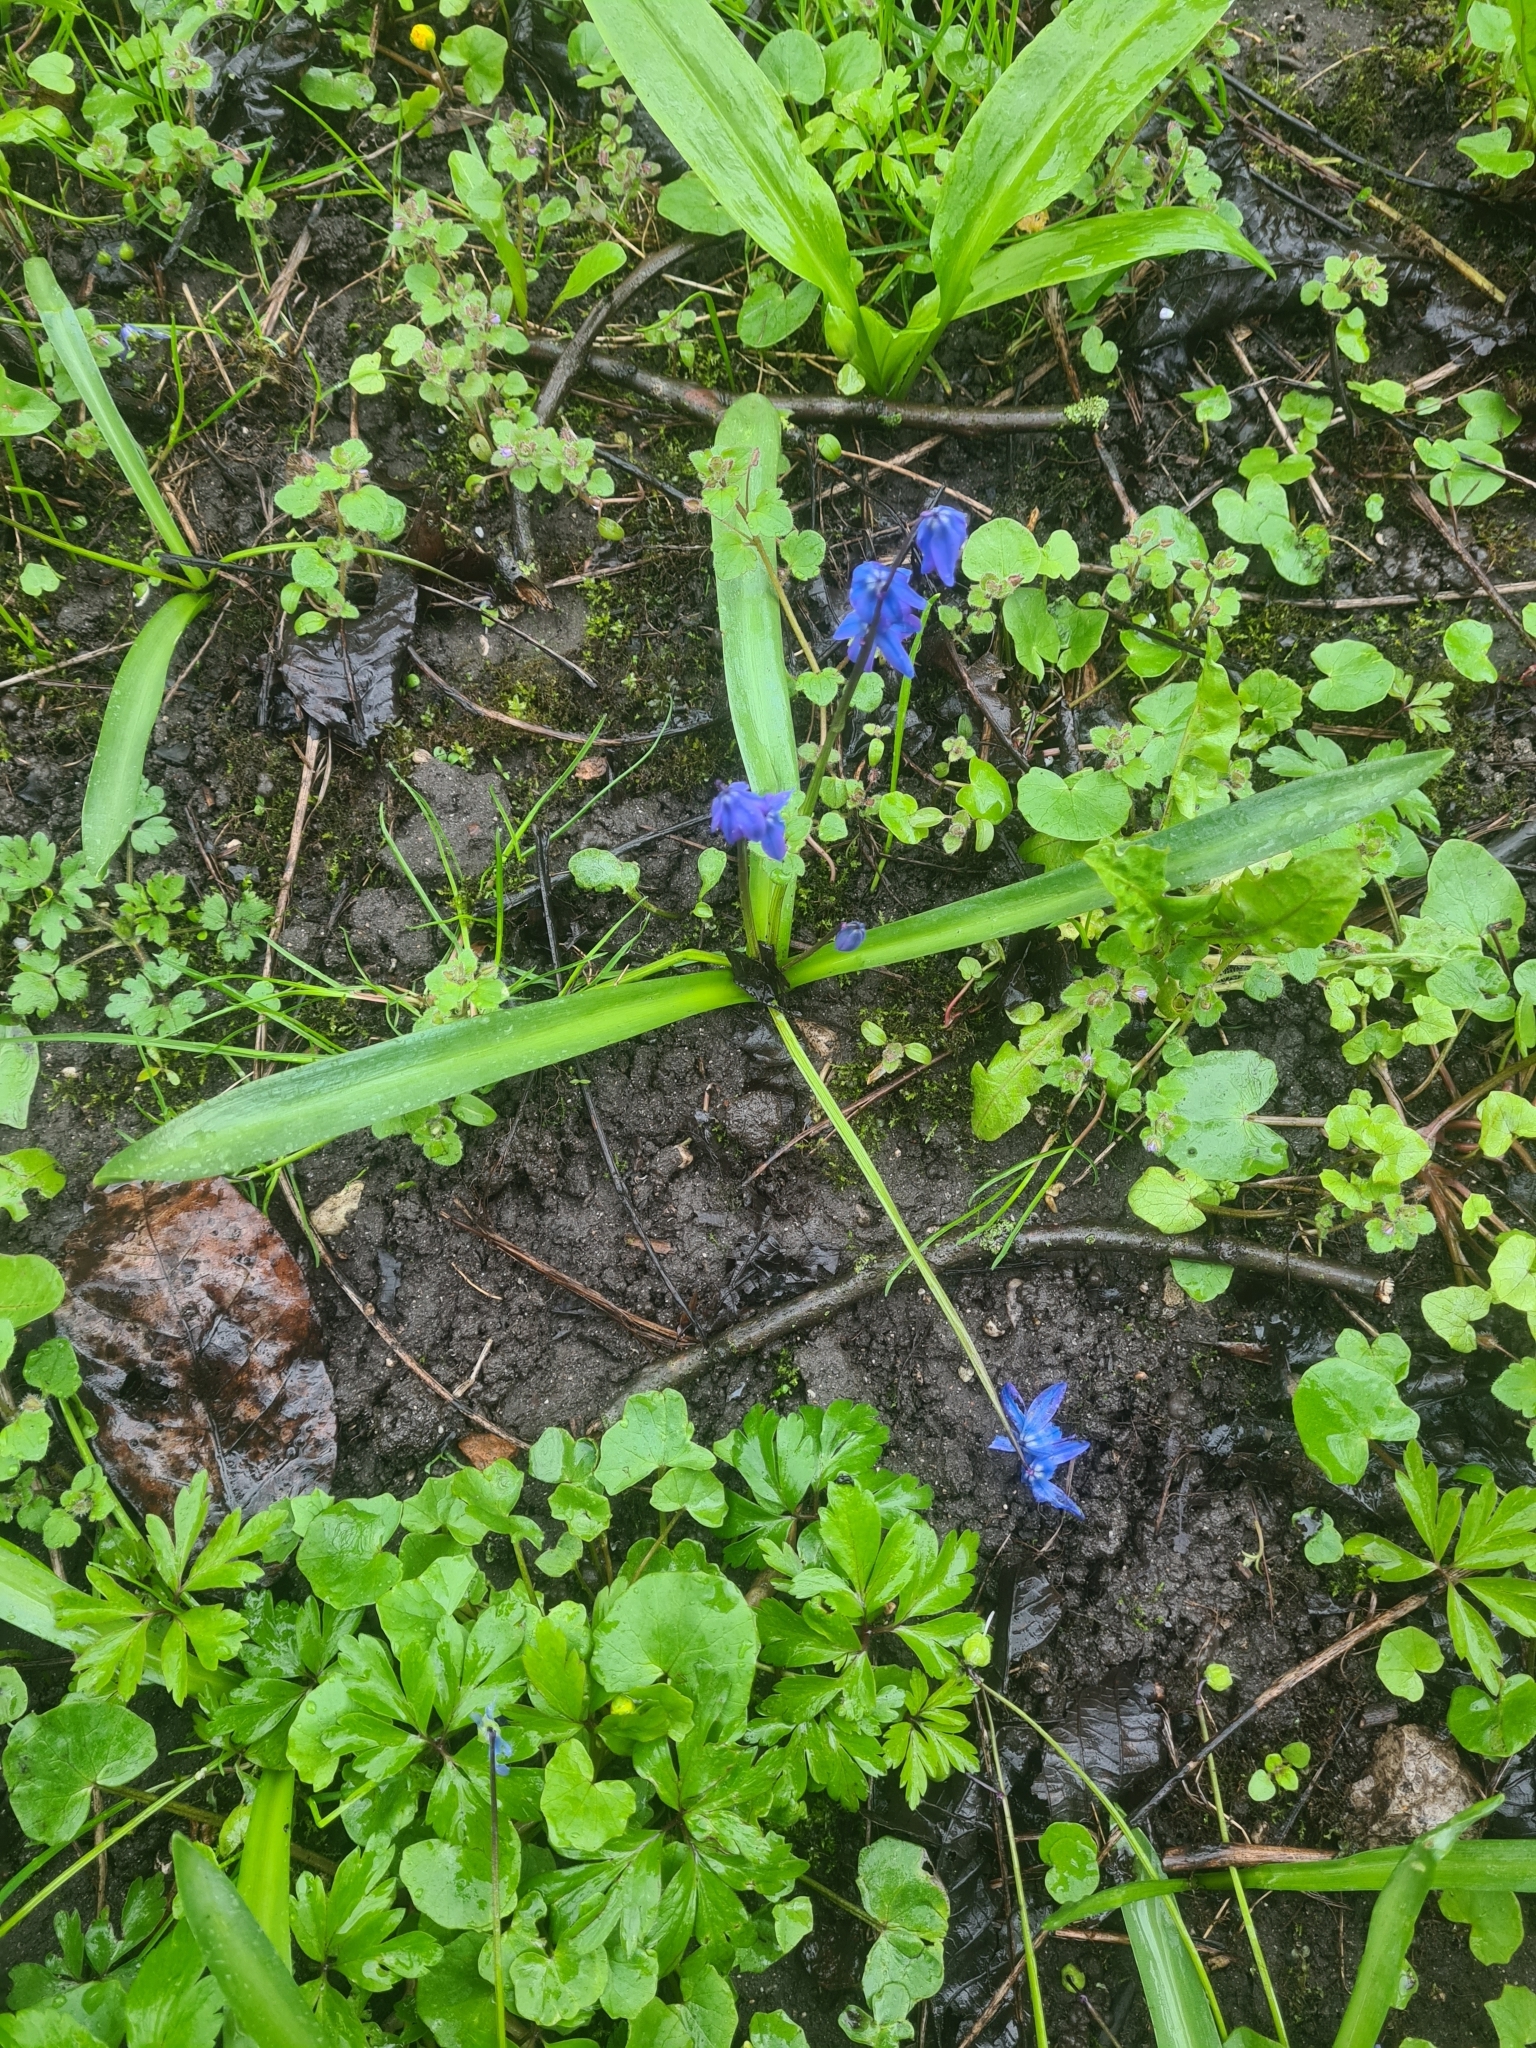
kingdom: Plantae
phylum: Tracheophyta
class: Liliopsida
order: Asparagales
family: Asparagaceae
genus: Scilla
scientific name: Scilla siberica
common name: Siberian squill
